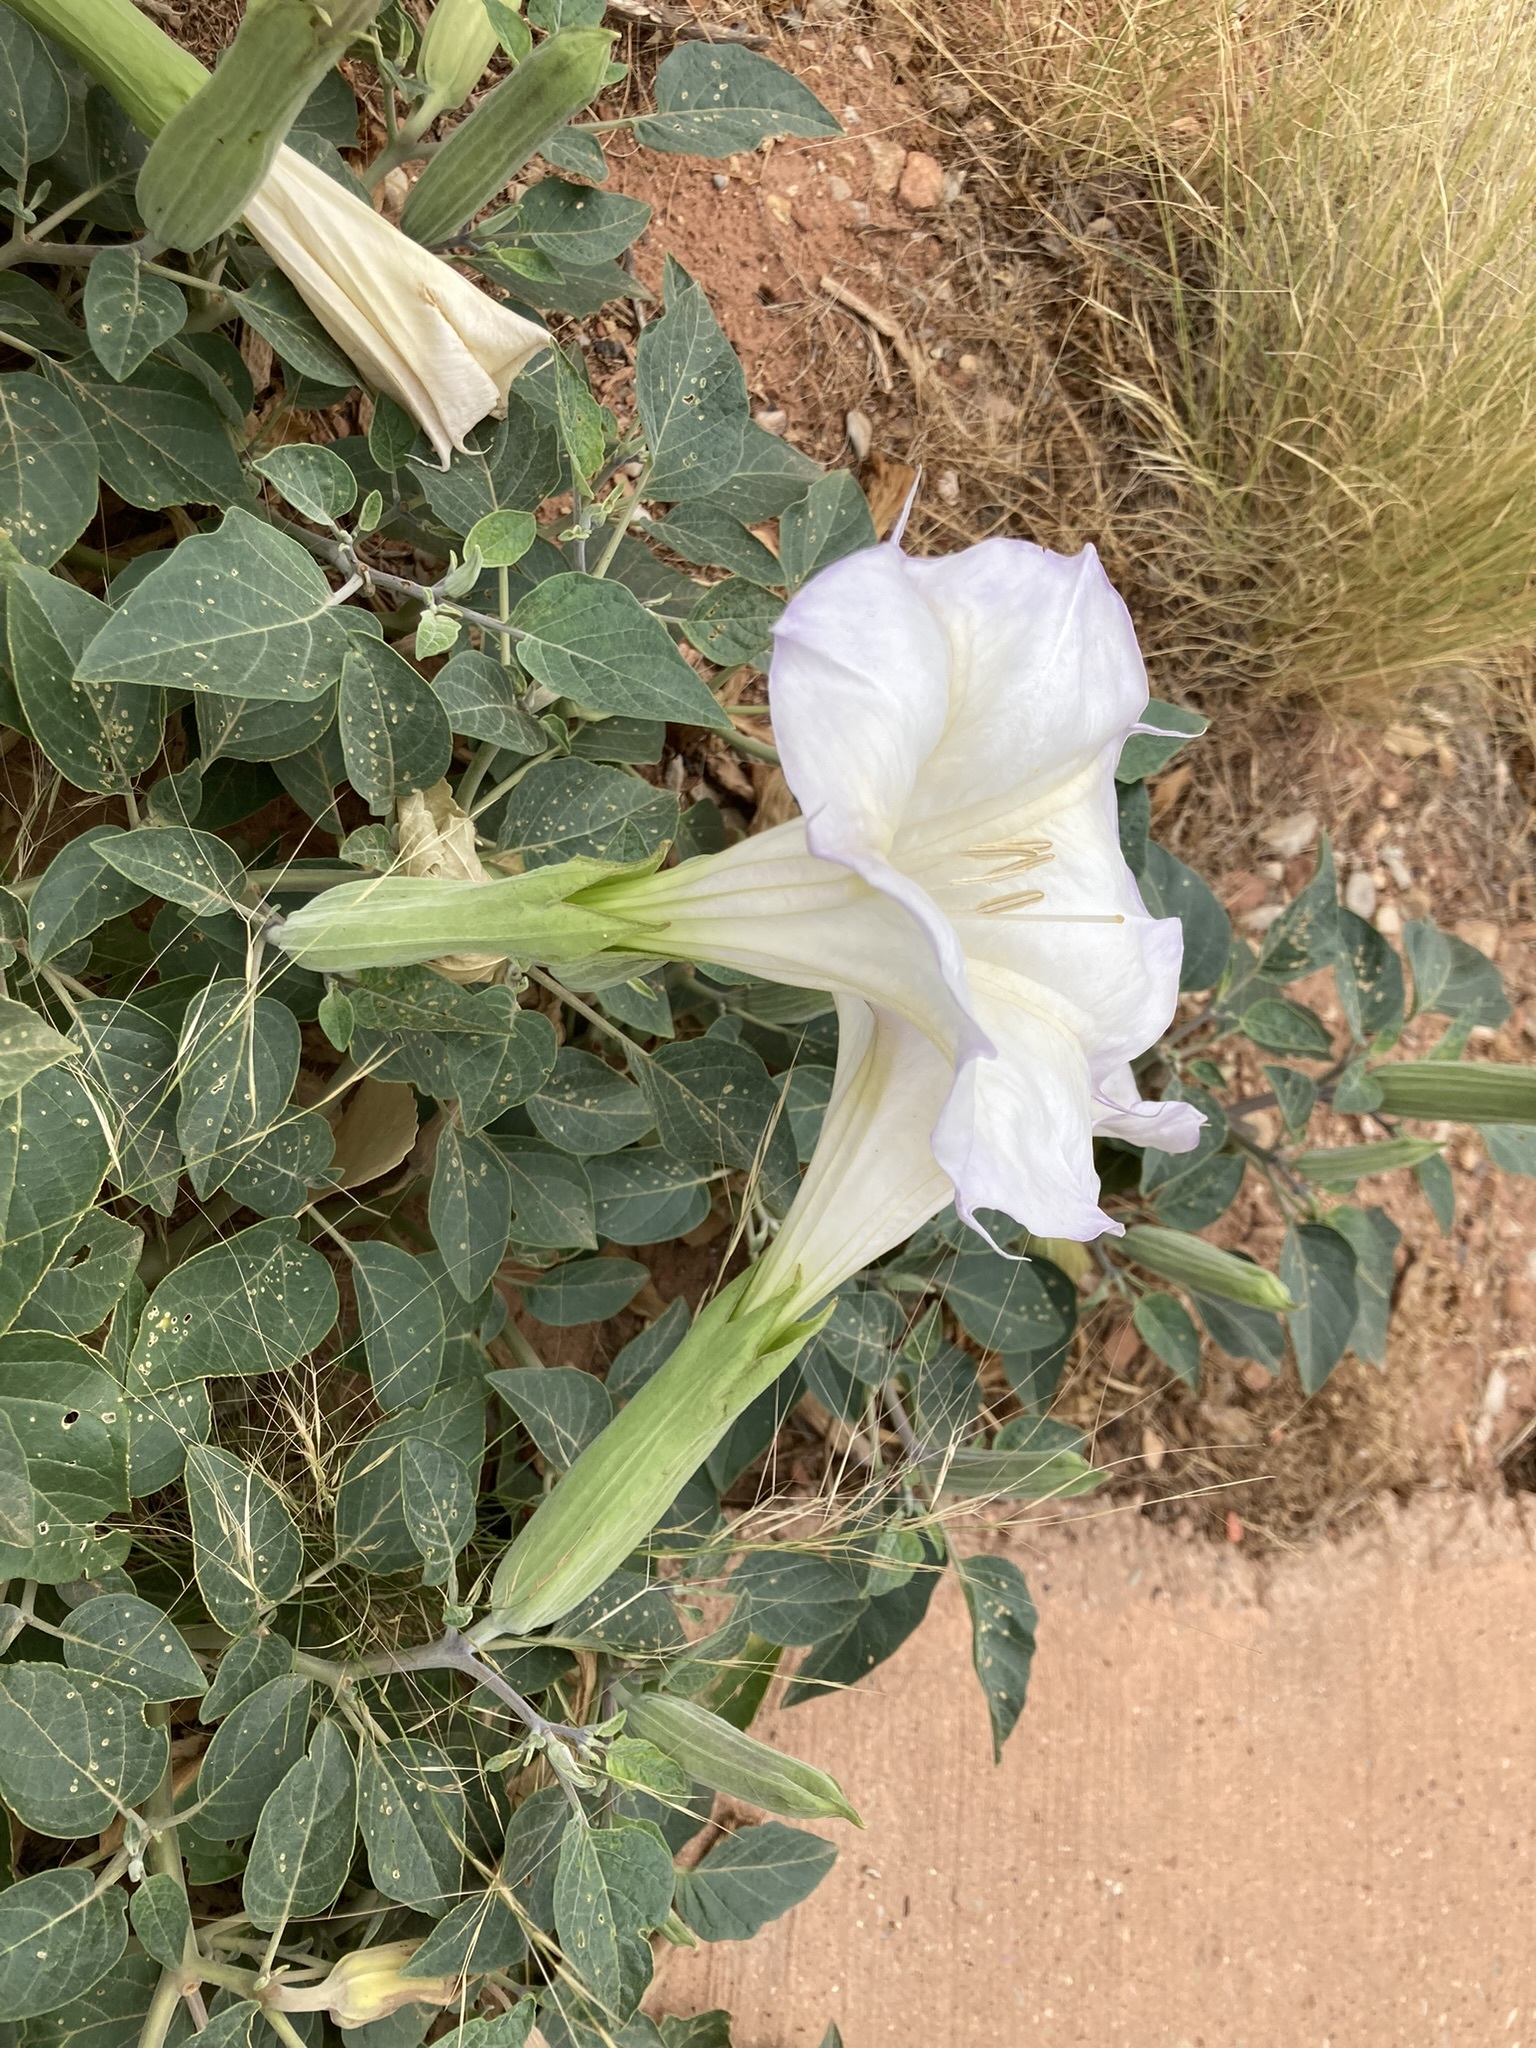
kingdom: Plantae
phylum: Tracheophyta
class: Magnoliopsida
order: Solanales
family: Solanaceae
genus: Datura
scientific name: Datura wrightii
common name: Sacred thorn-apple
